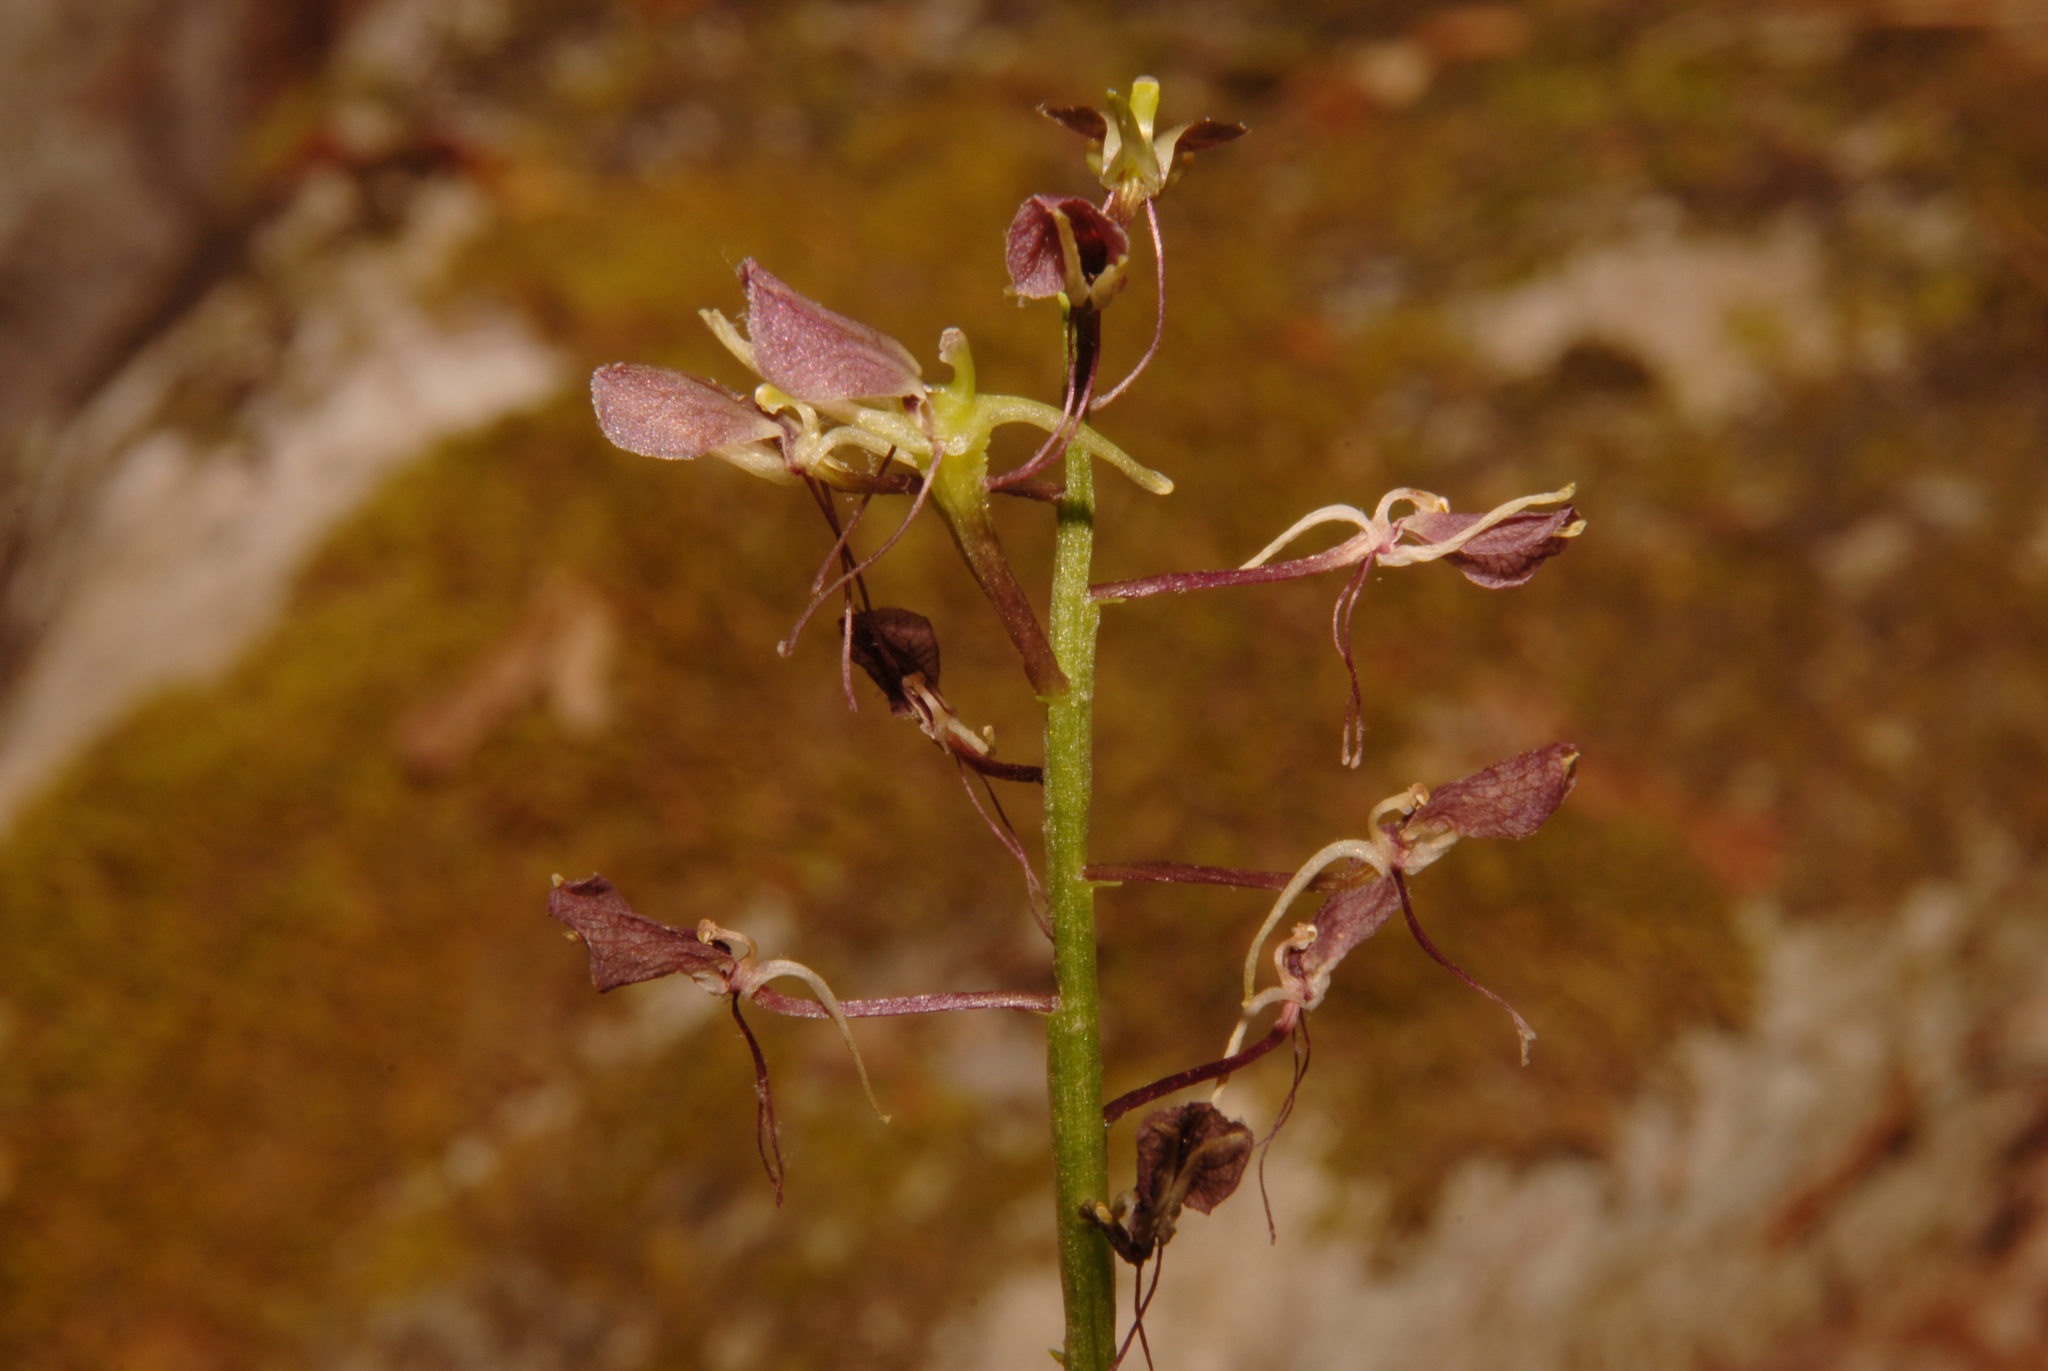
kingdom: Plantae
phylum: Tracheophyta
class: Liliopsida
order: Asparagales
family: Orchidaceae
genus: Liparis
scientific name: Liparis liliifolia
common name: Brown wide-lip orchid
